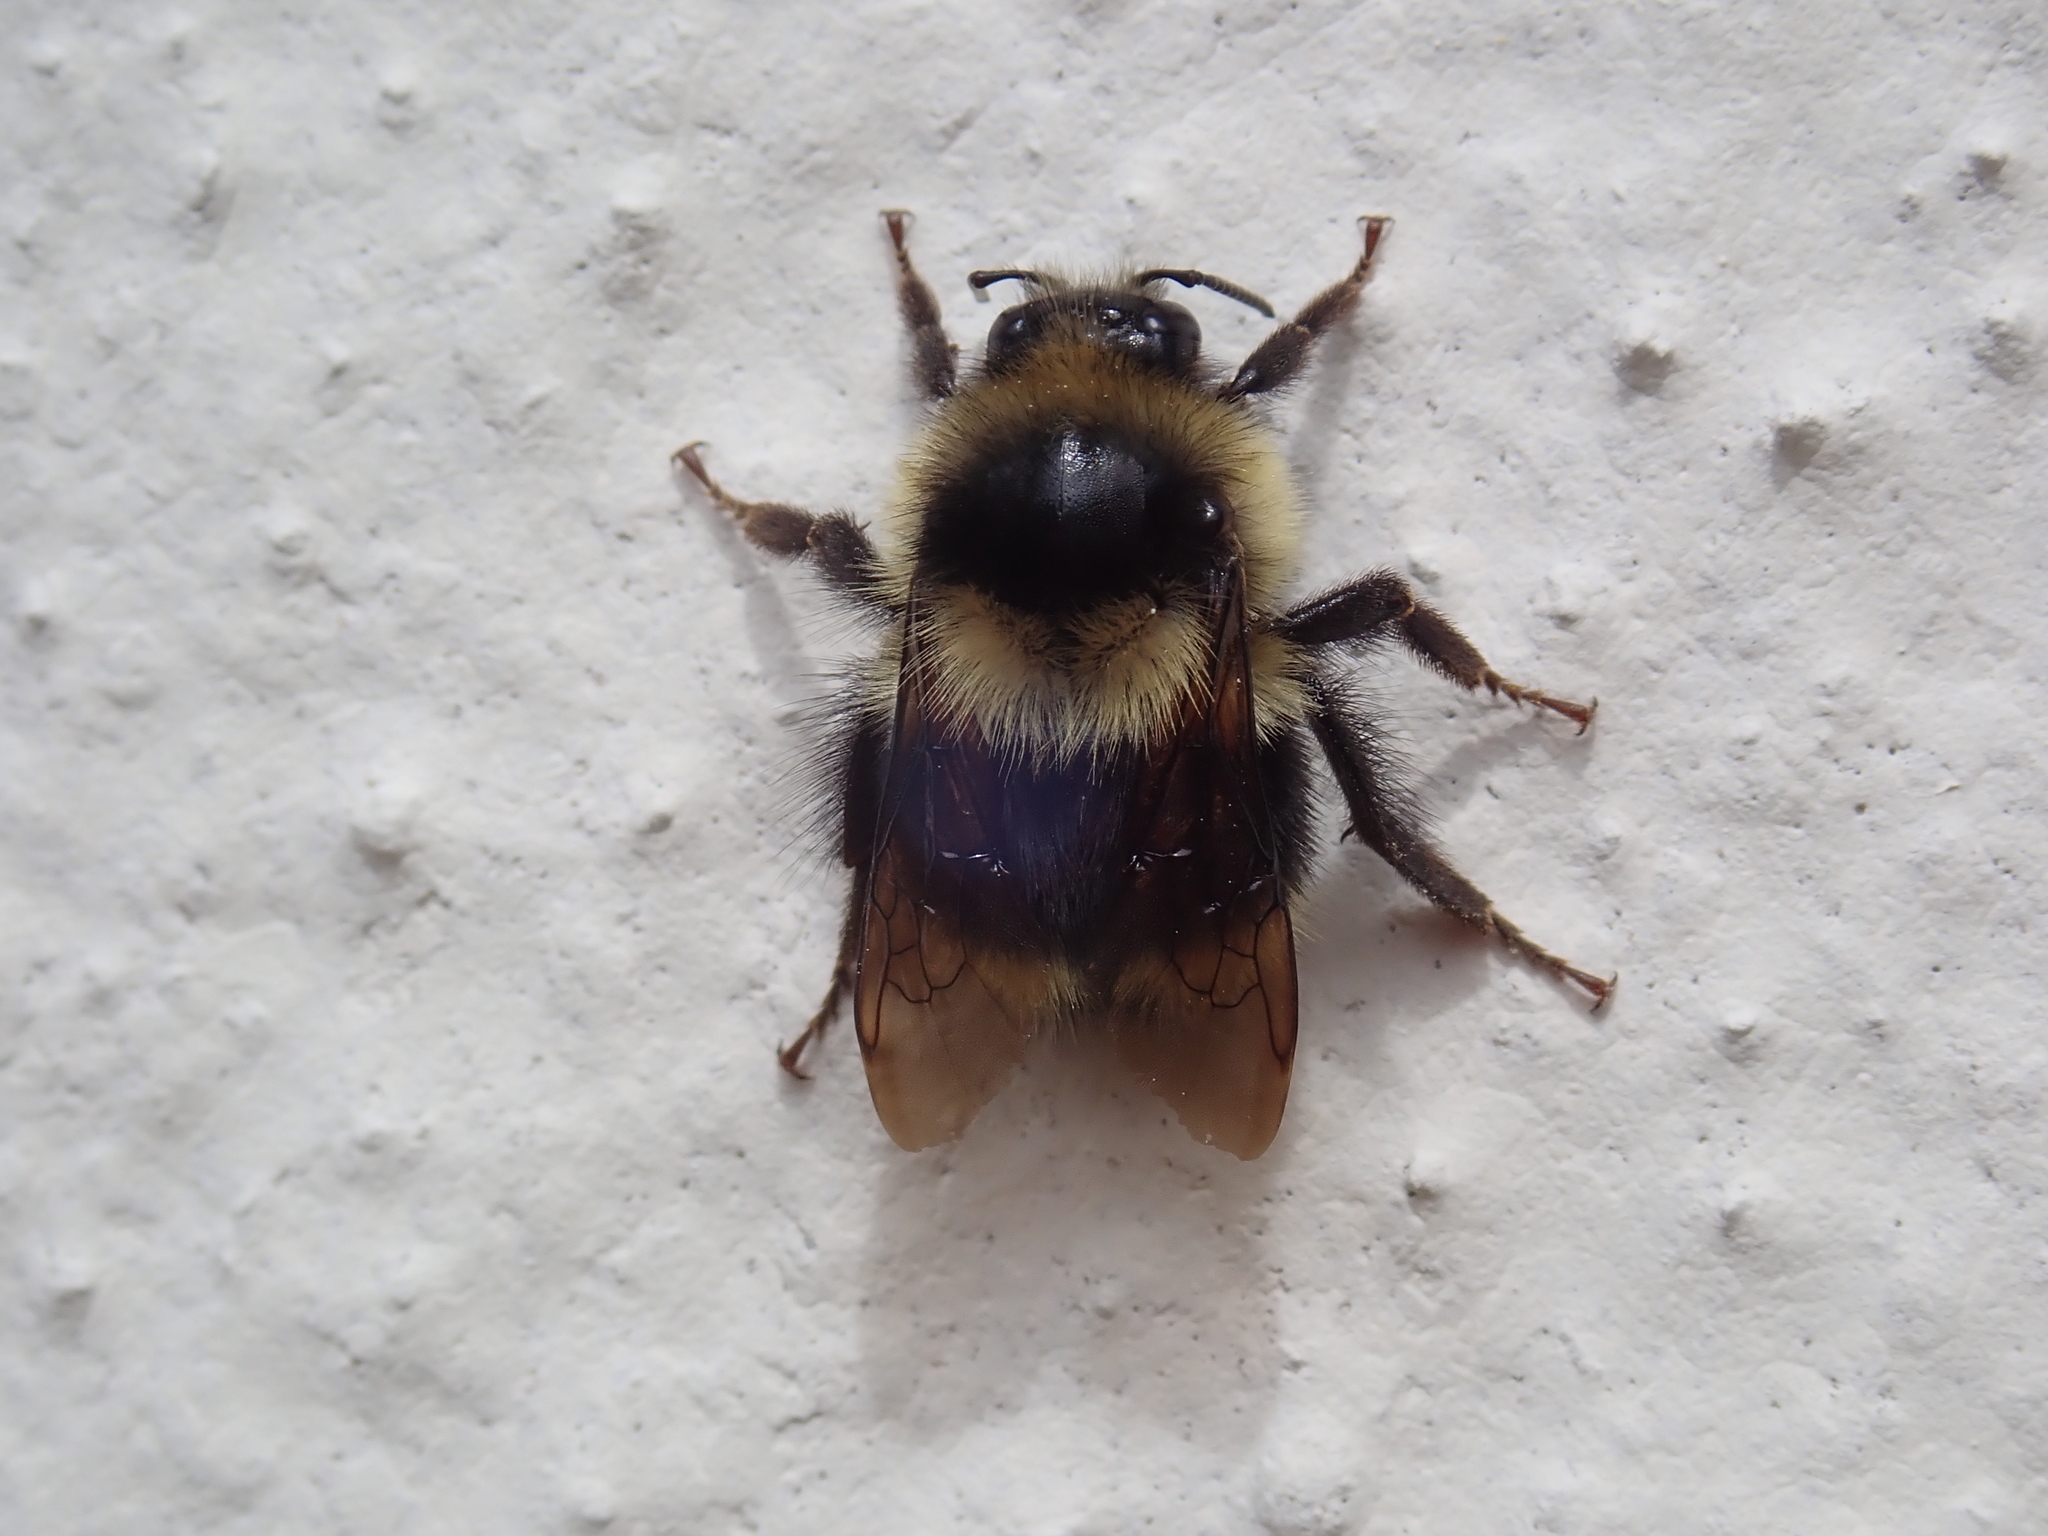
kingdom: Animalia
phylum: Arthropoda
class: Insecta
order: Hymenoptera
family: Apidae
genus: Bombus
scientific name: Bombus melanopygus
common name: Black tail bumble bee
